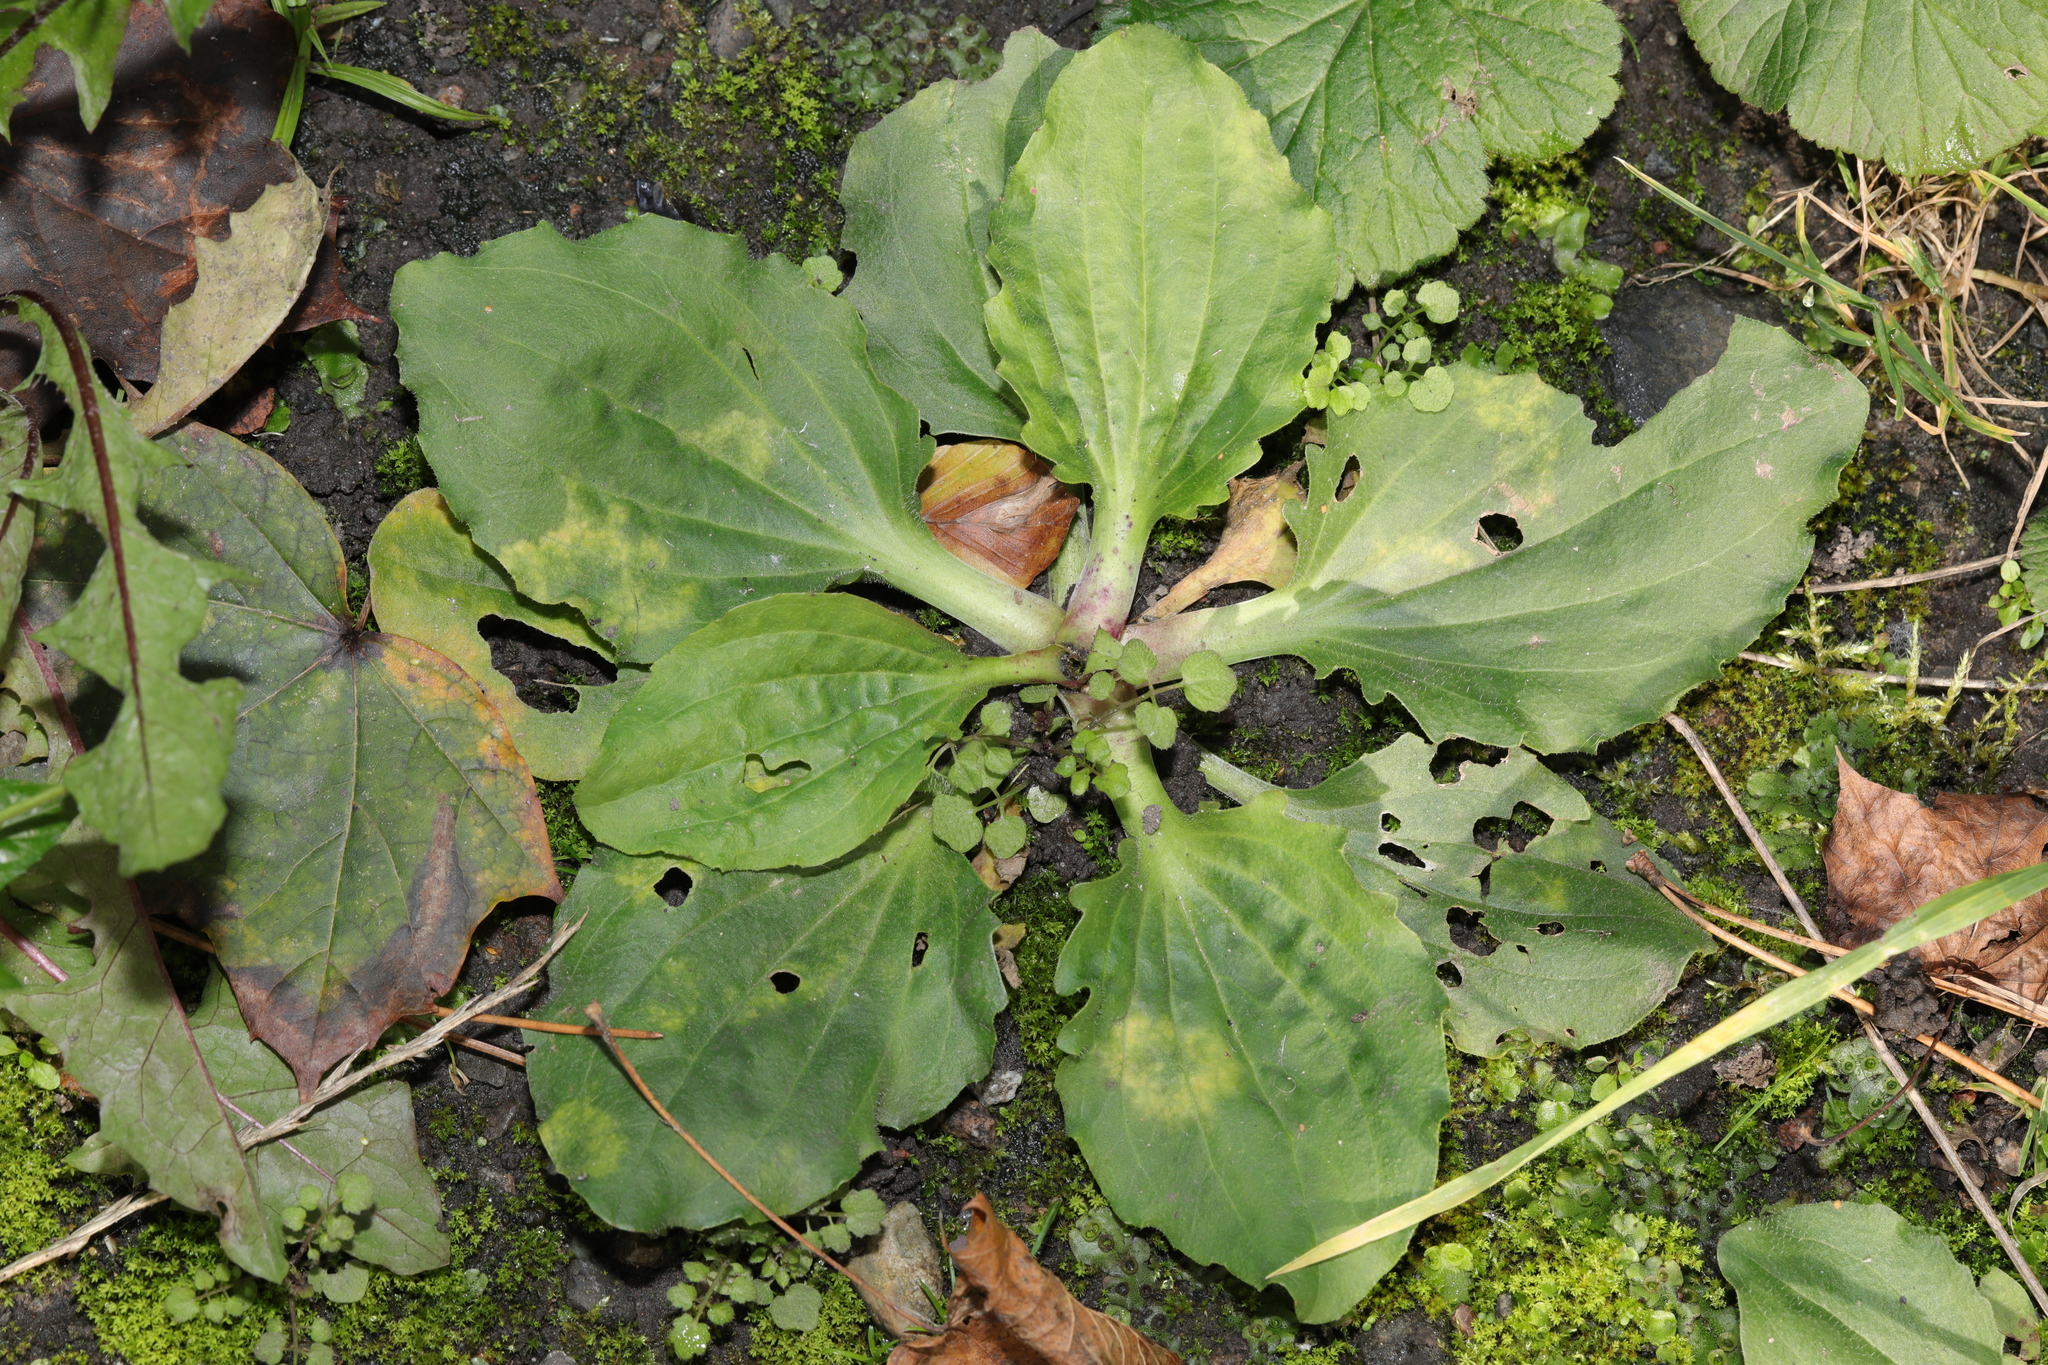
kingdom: Plantae
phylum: Tracheophyta
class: Magnoliopsida
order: Lamiales
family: Plantaginaceae
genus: Plantago
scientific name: Plantago major
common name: Common plantain
